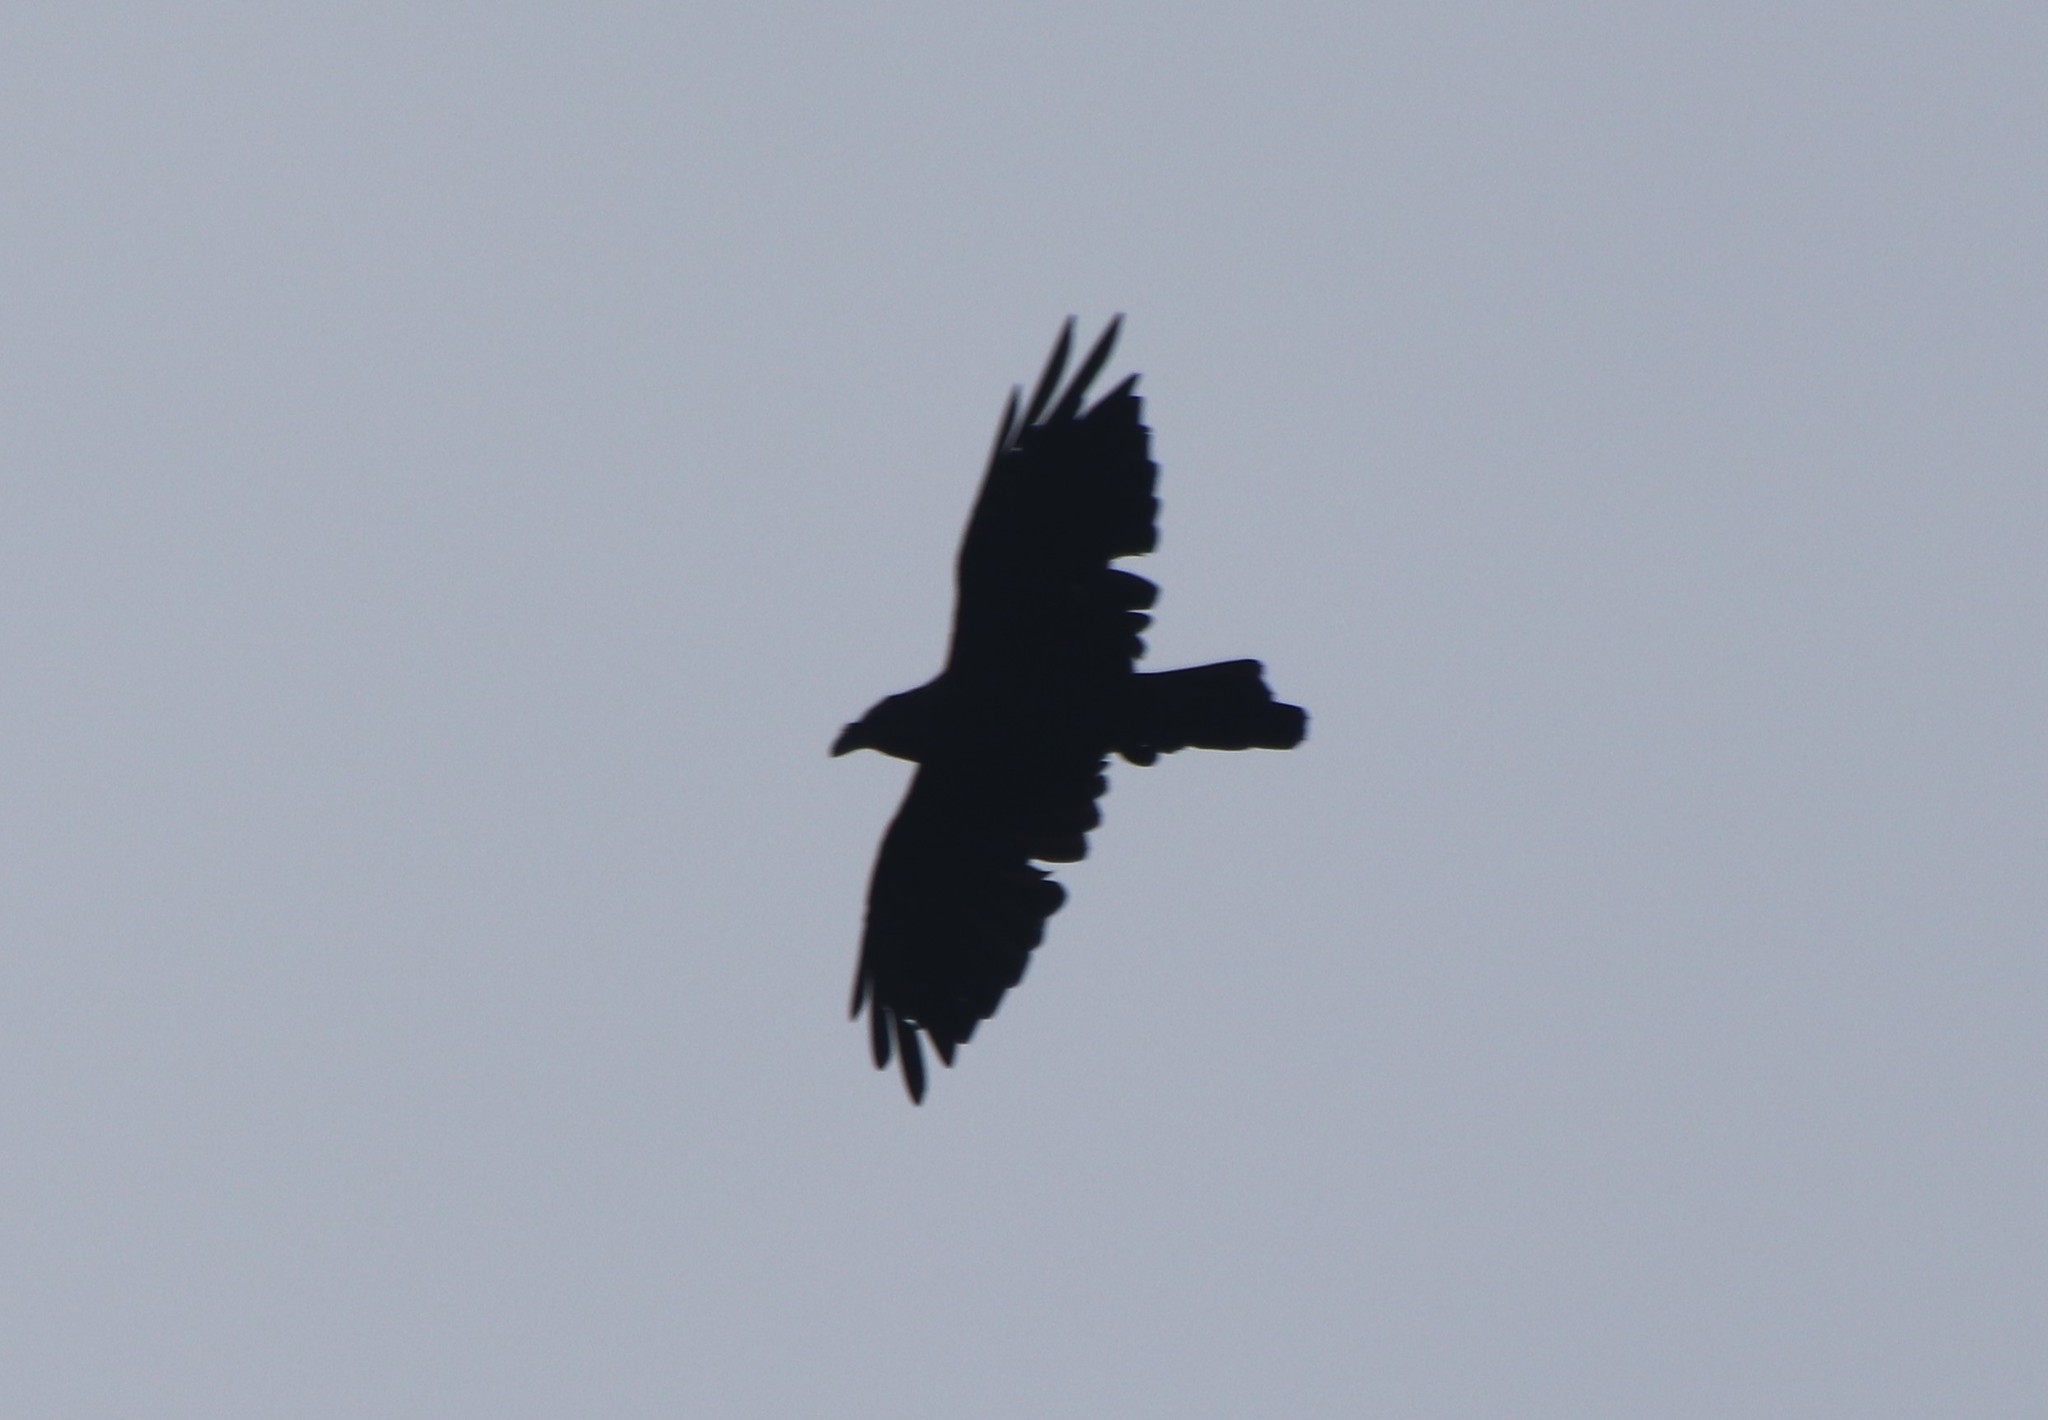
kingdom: Animalia
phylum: Chordata
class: Aves
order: Passeriformes
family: Corvidae
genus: Corvus
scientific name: Corvus corax
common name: Common raven
